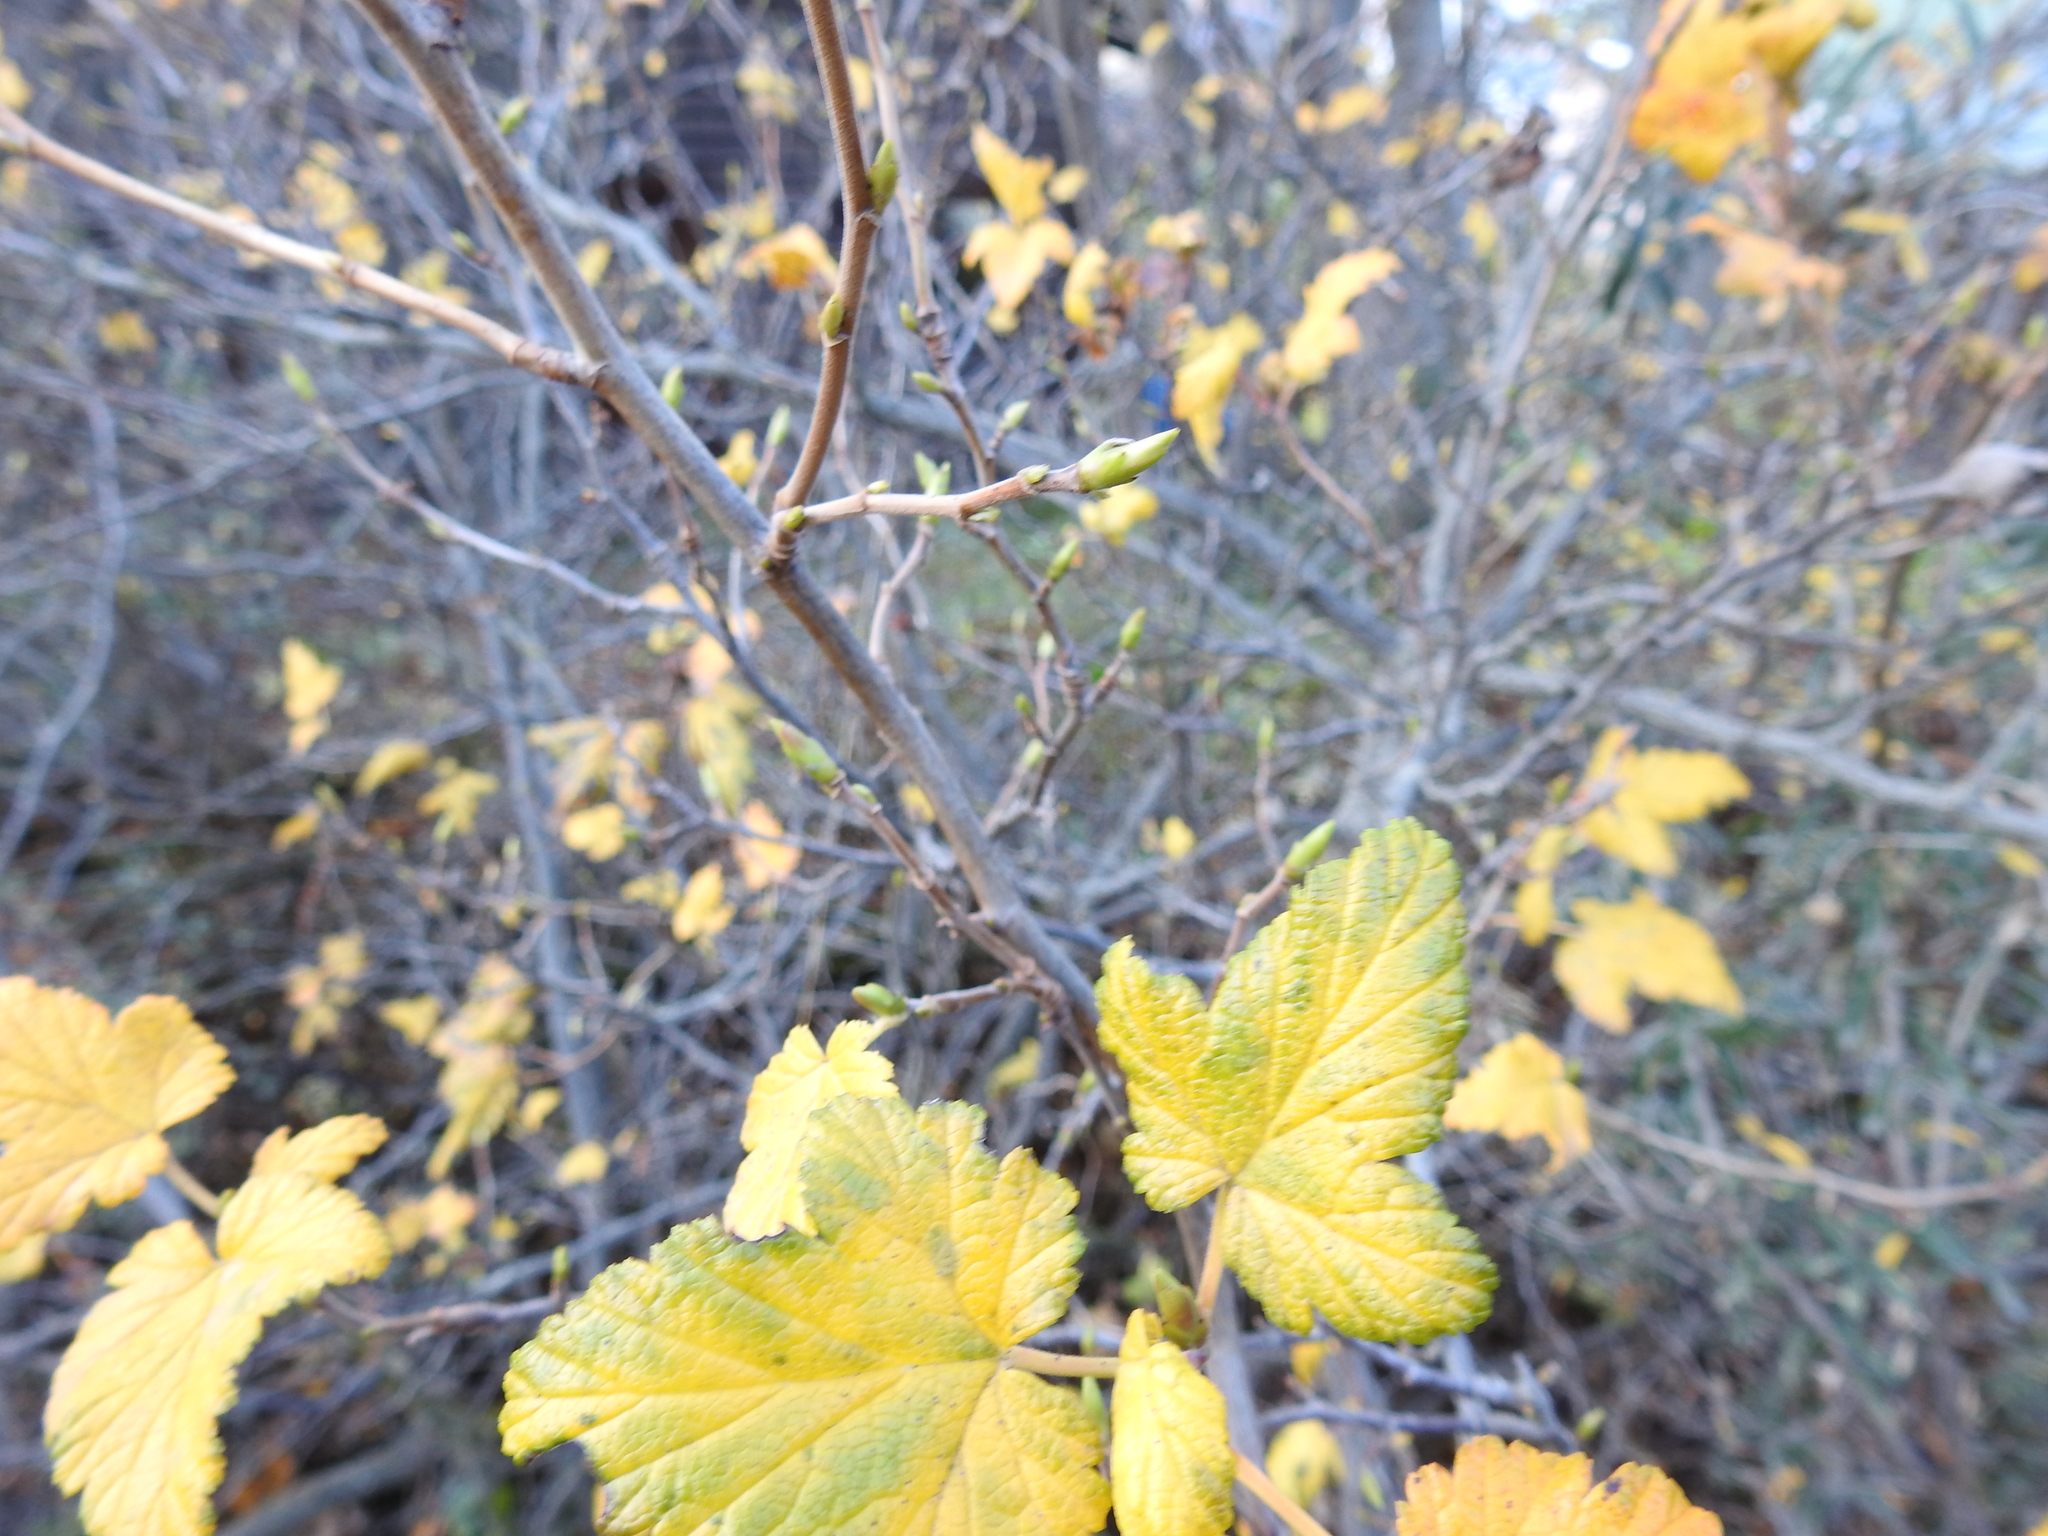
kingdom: Plantae
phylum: Tracheophyta
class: Magnoliopsida
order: Saxifragales
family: Grossulariaceae
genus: Ribes
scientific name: Ribes magellanicum
